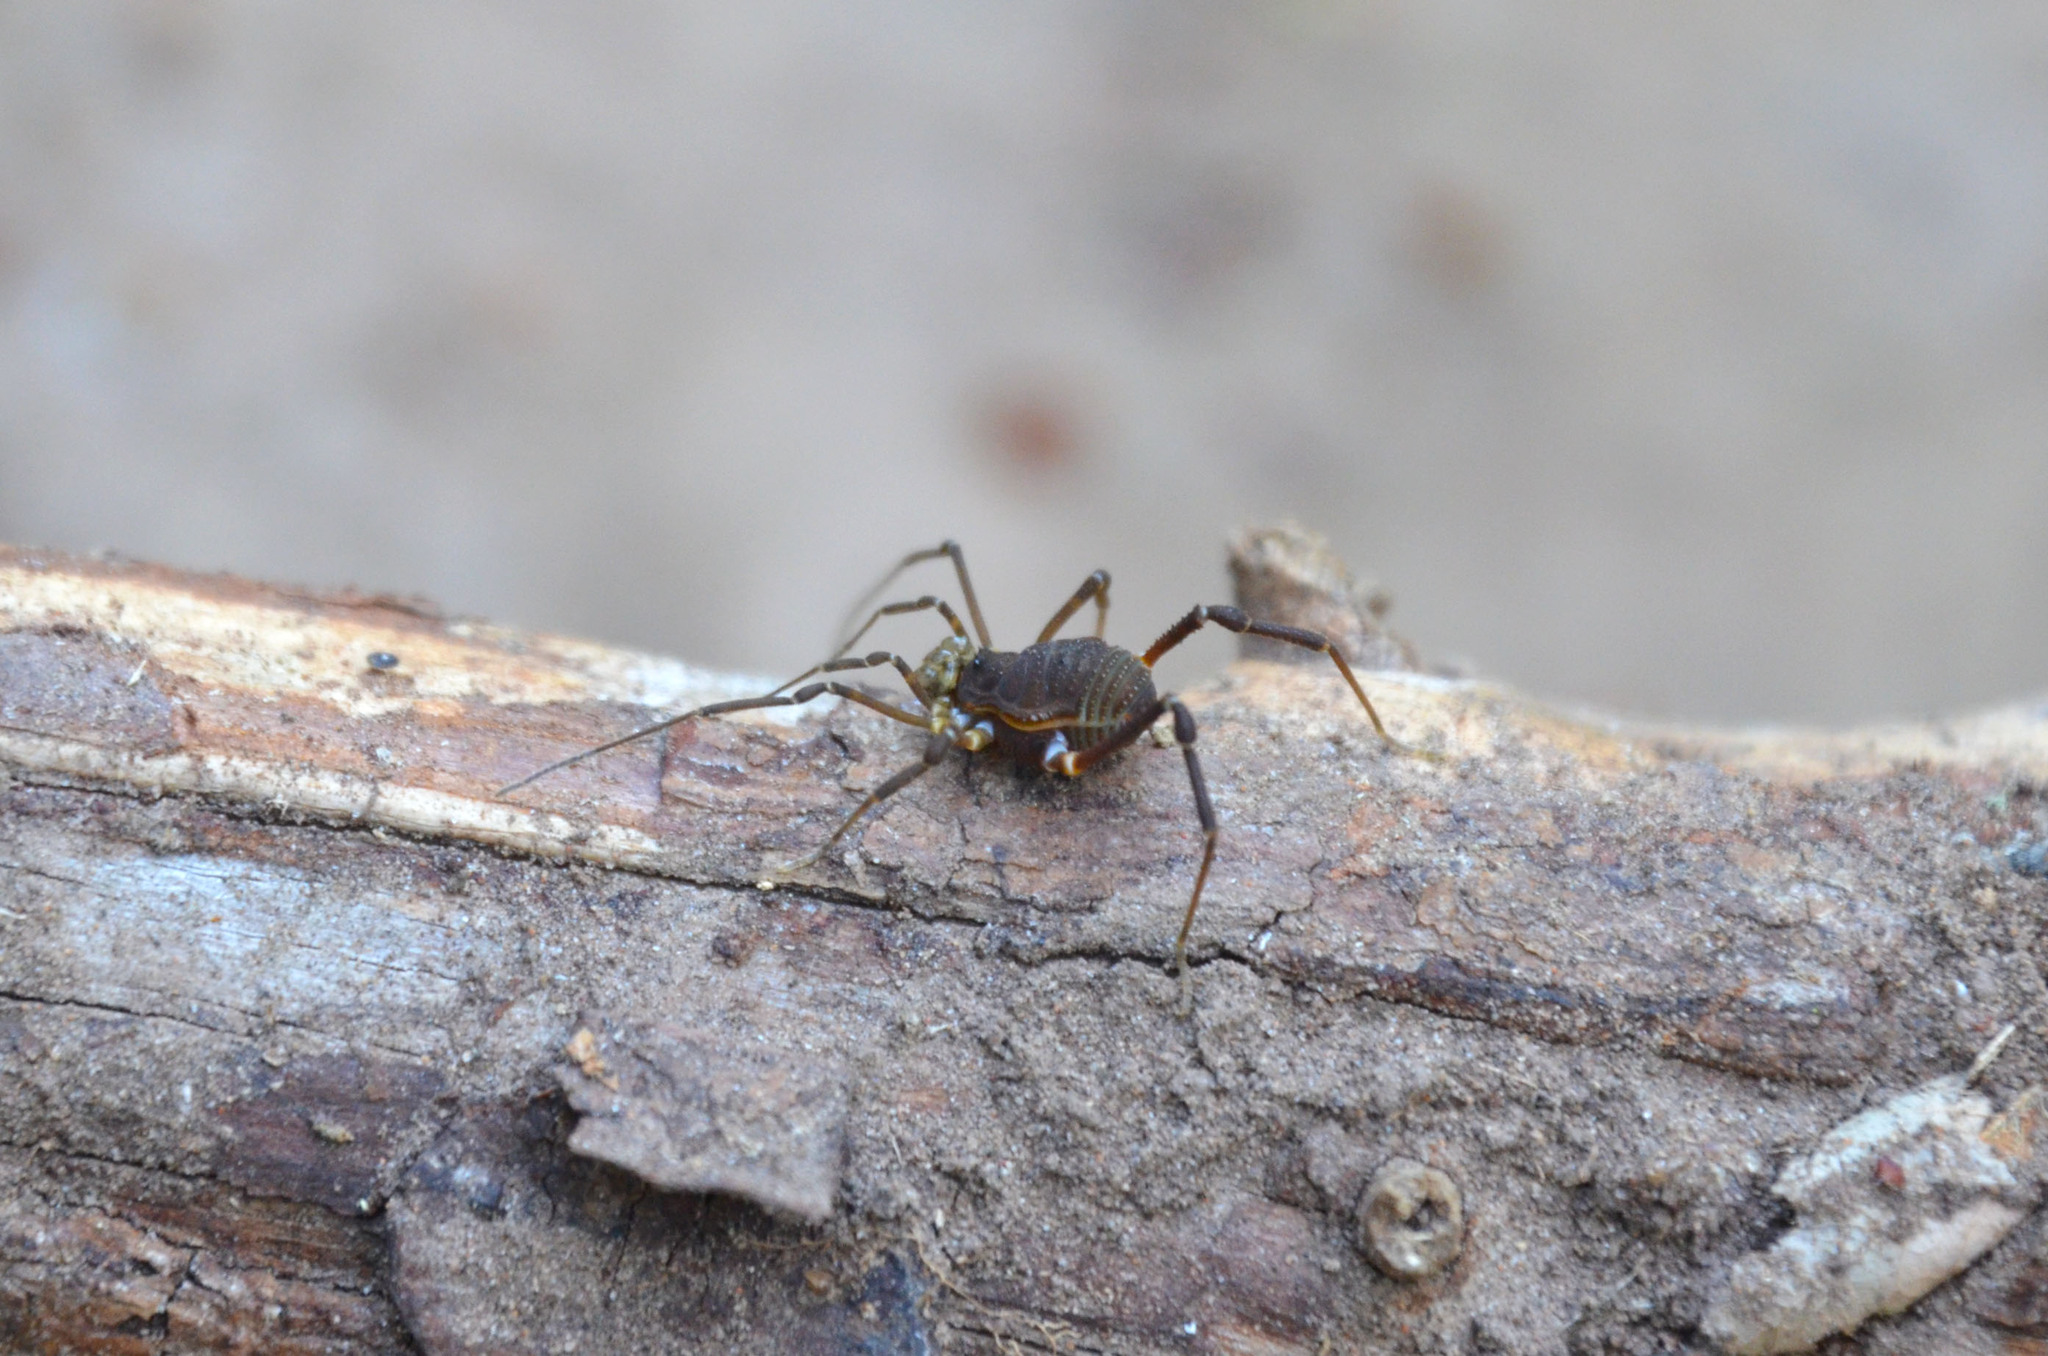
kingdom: Animalia
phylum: Arthropoda
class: Arachnida
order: Opiliones
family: Gonyleptidae
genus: Acanthopachylus
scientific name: Acanthopachylus robustus
